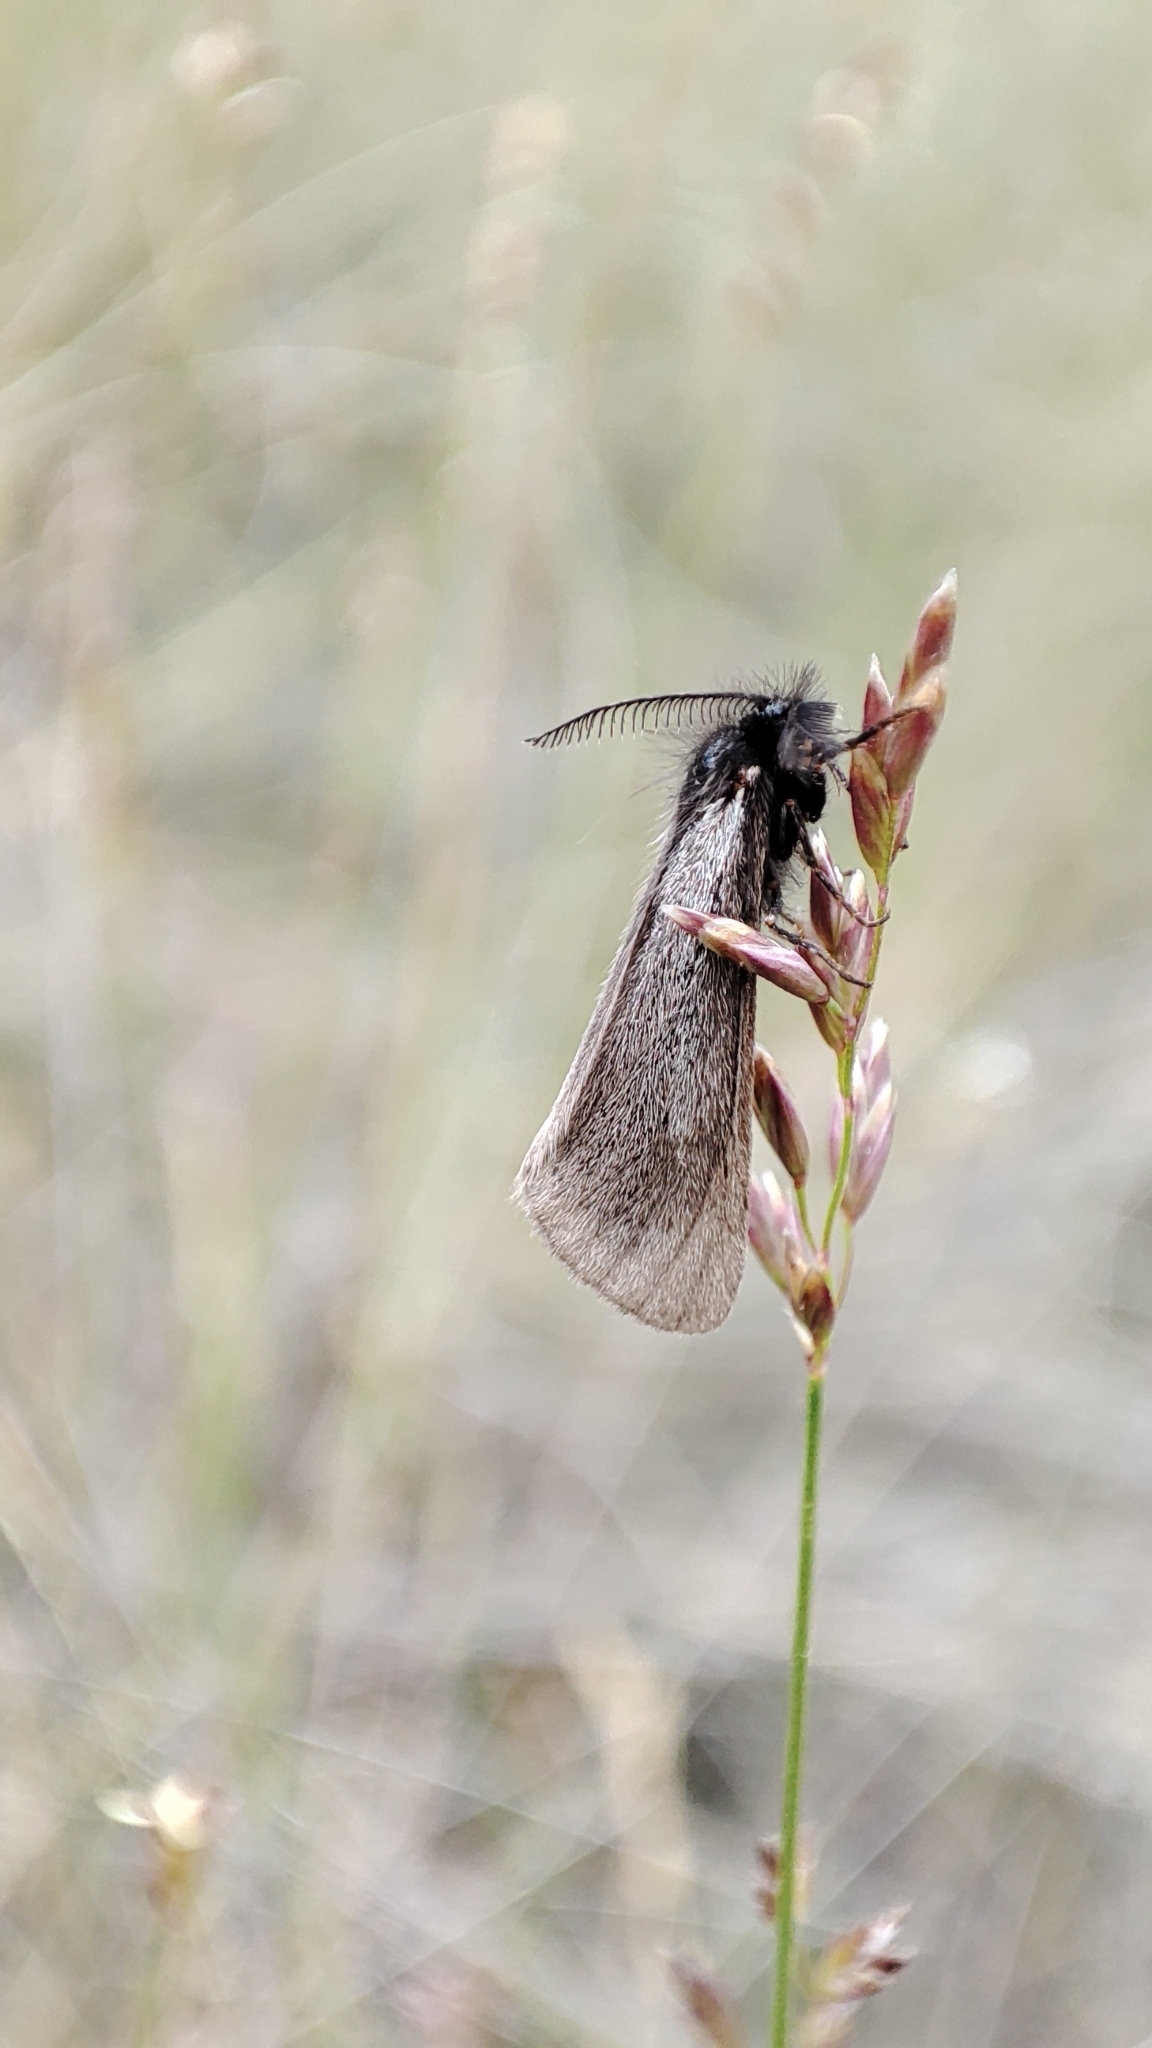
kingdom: Animalia
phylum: Arthropoda
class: Insecta
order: Lepidoptera
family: Erebidae
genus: Epimydia
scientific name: Epimydia dialampa
